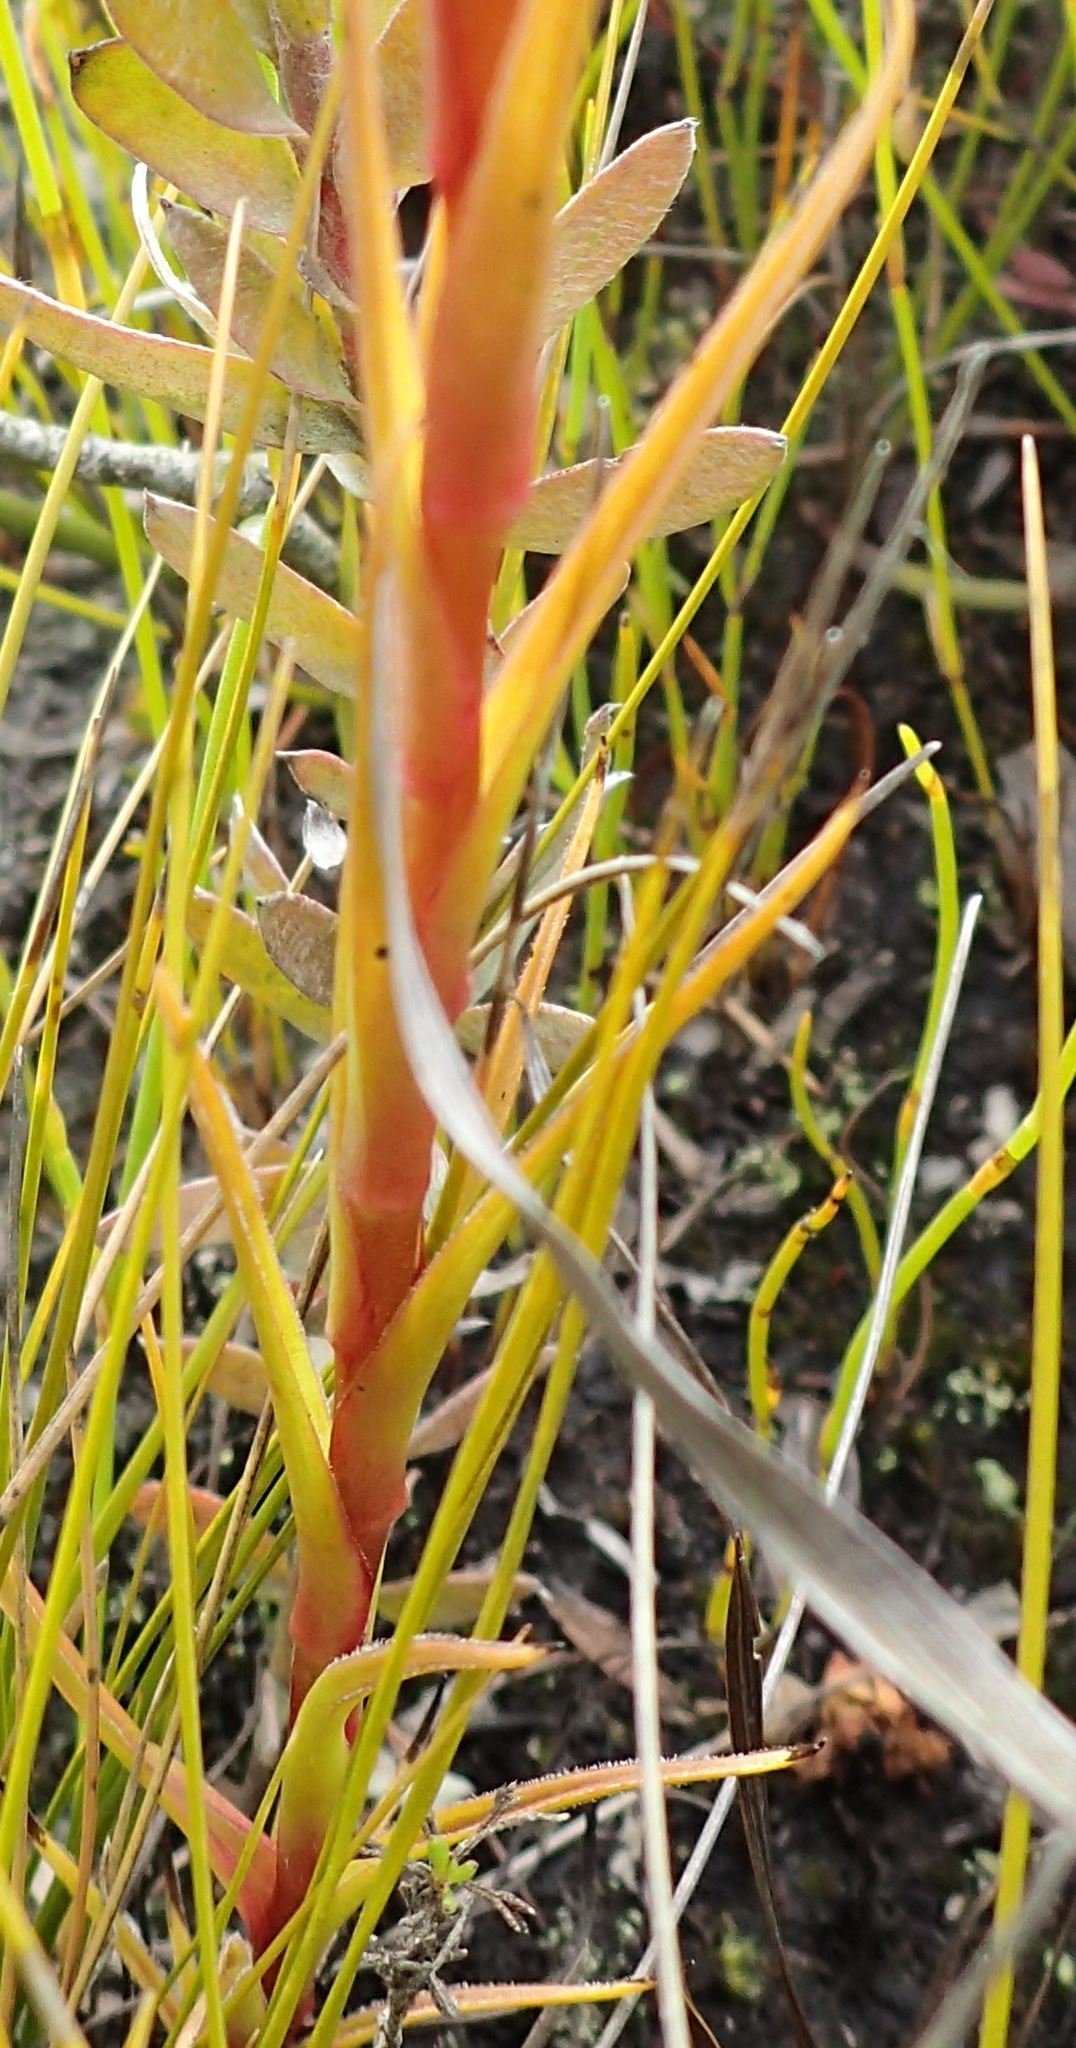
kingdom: Plantae
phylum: Tracheophyta
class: Liliopsida
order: Asparagales
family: Orchidaceae
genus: Ceratandra
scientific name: Ceratandra globosa
